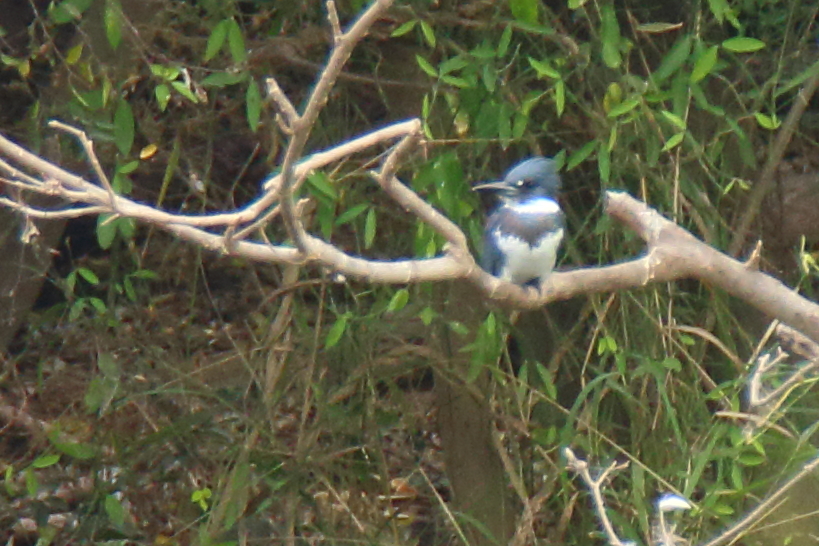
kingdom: Animalia
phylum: Chordata
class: Aves
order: Coraciiformes
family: Alcedinidae
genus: Megaceryle
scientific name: Megaceryle alcyon
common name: Belted kingfisher
